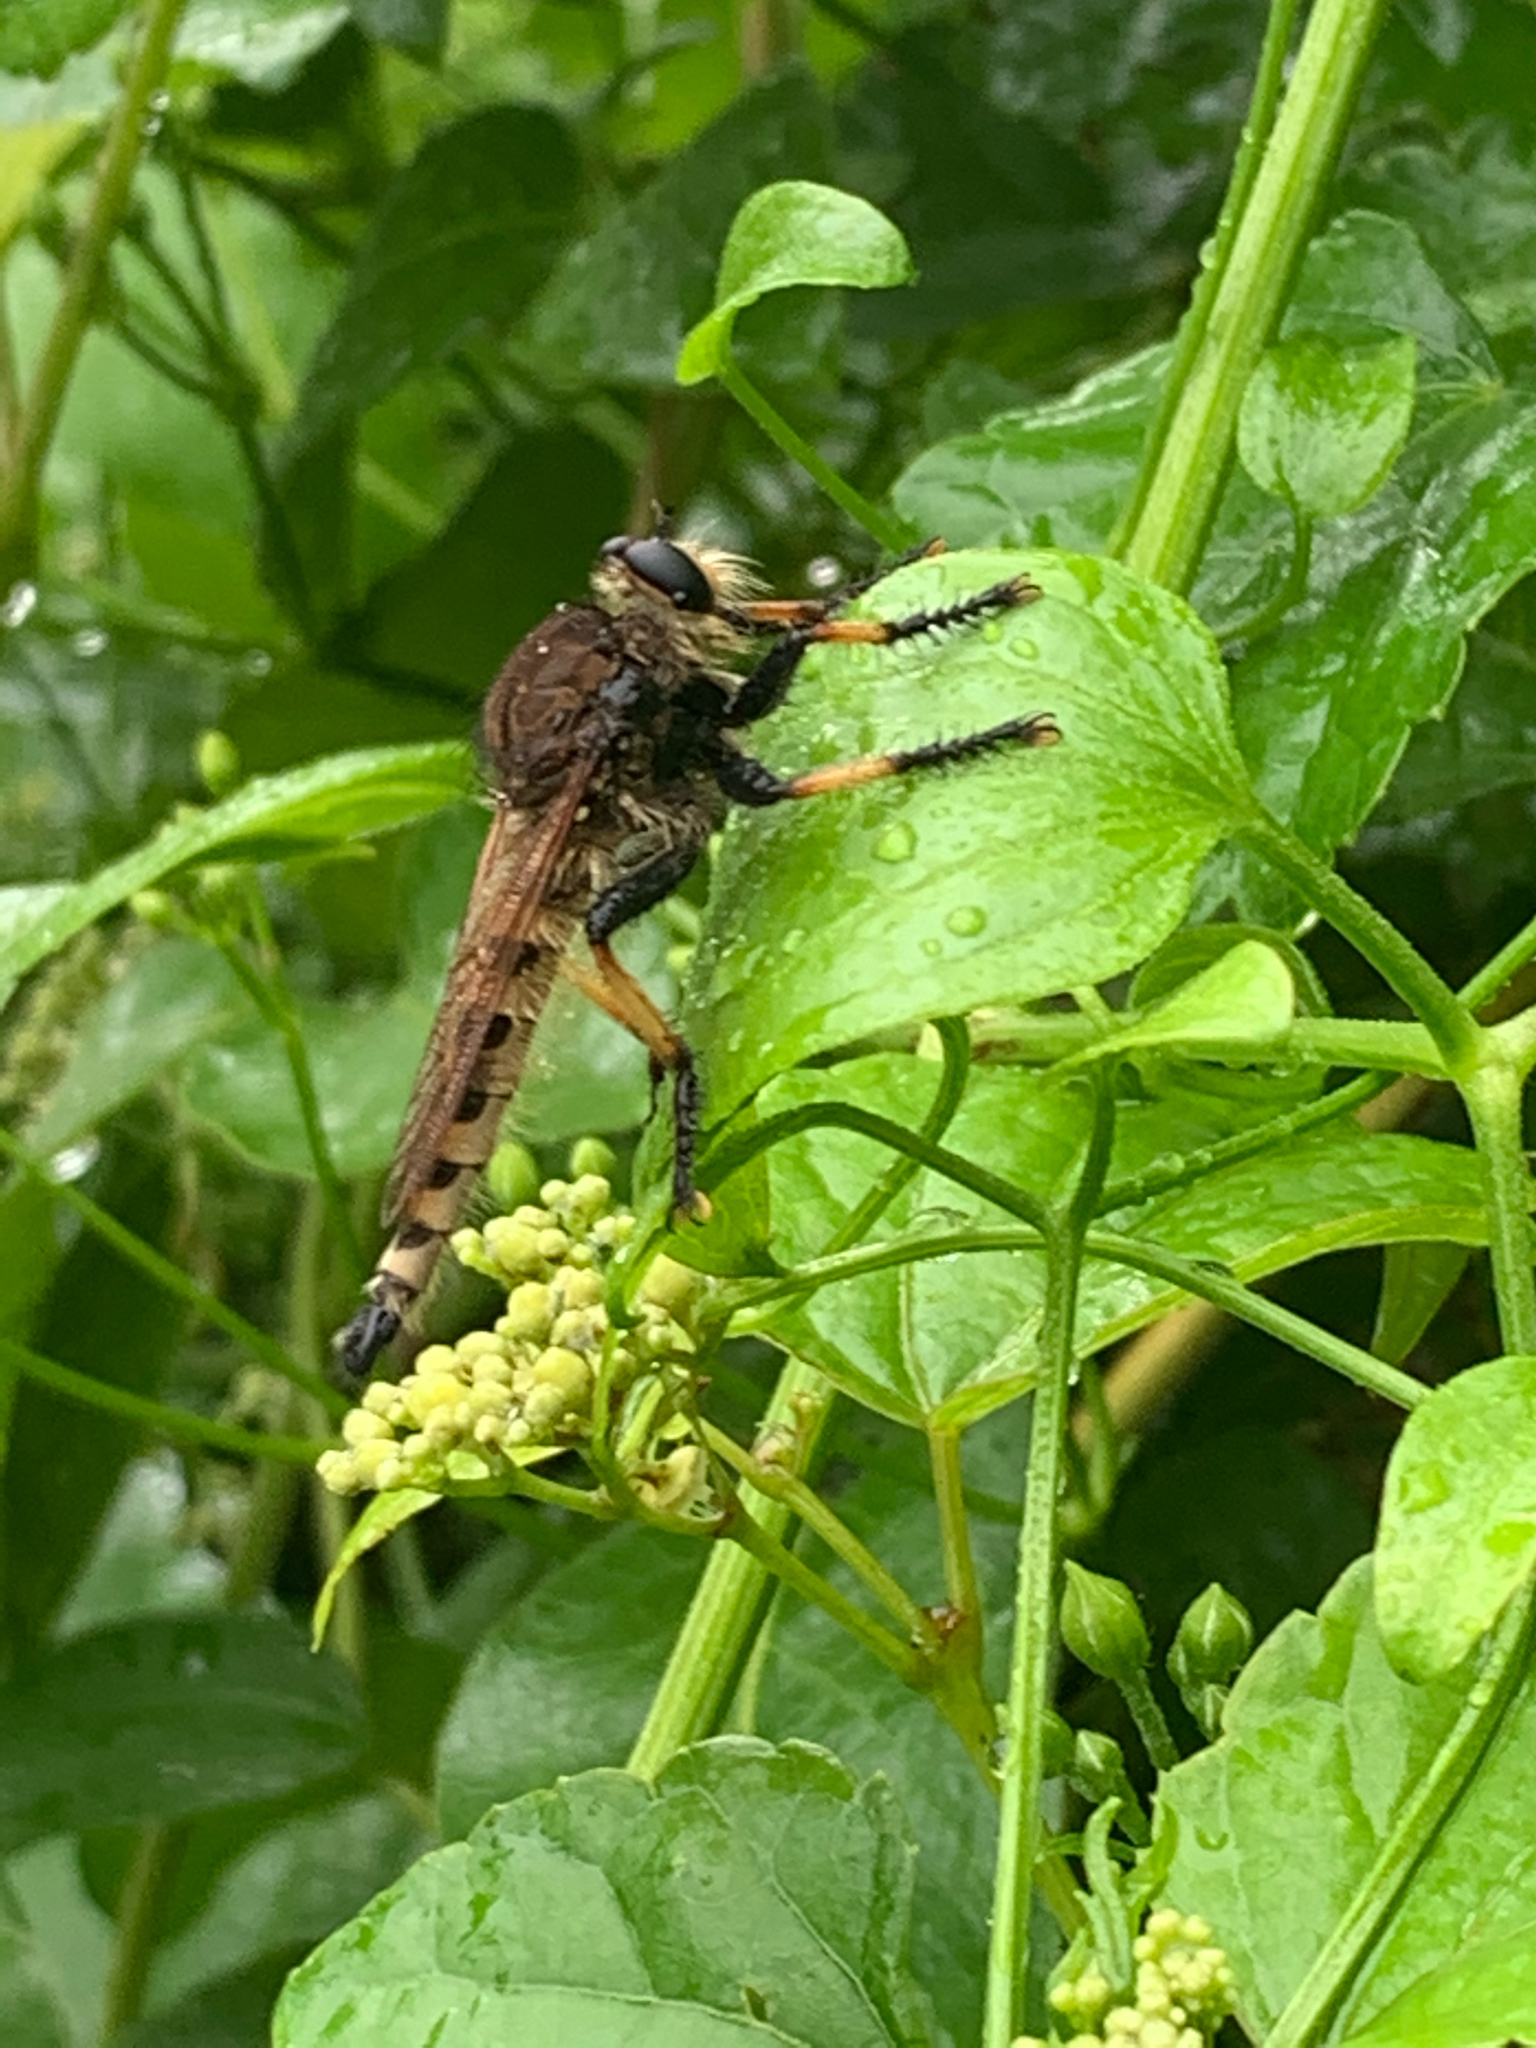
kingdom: Animalia
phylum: Arthropoda
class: Insecta
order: Diptera
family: Asilidae
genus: Promachus
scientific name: Promachus rufipes
